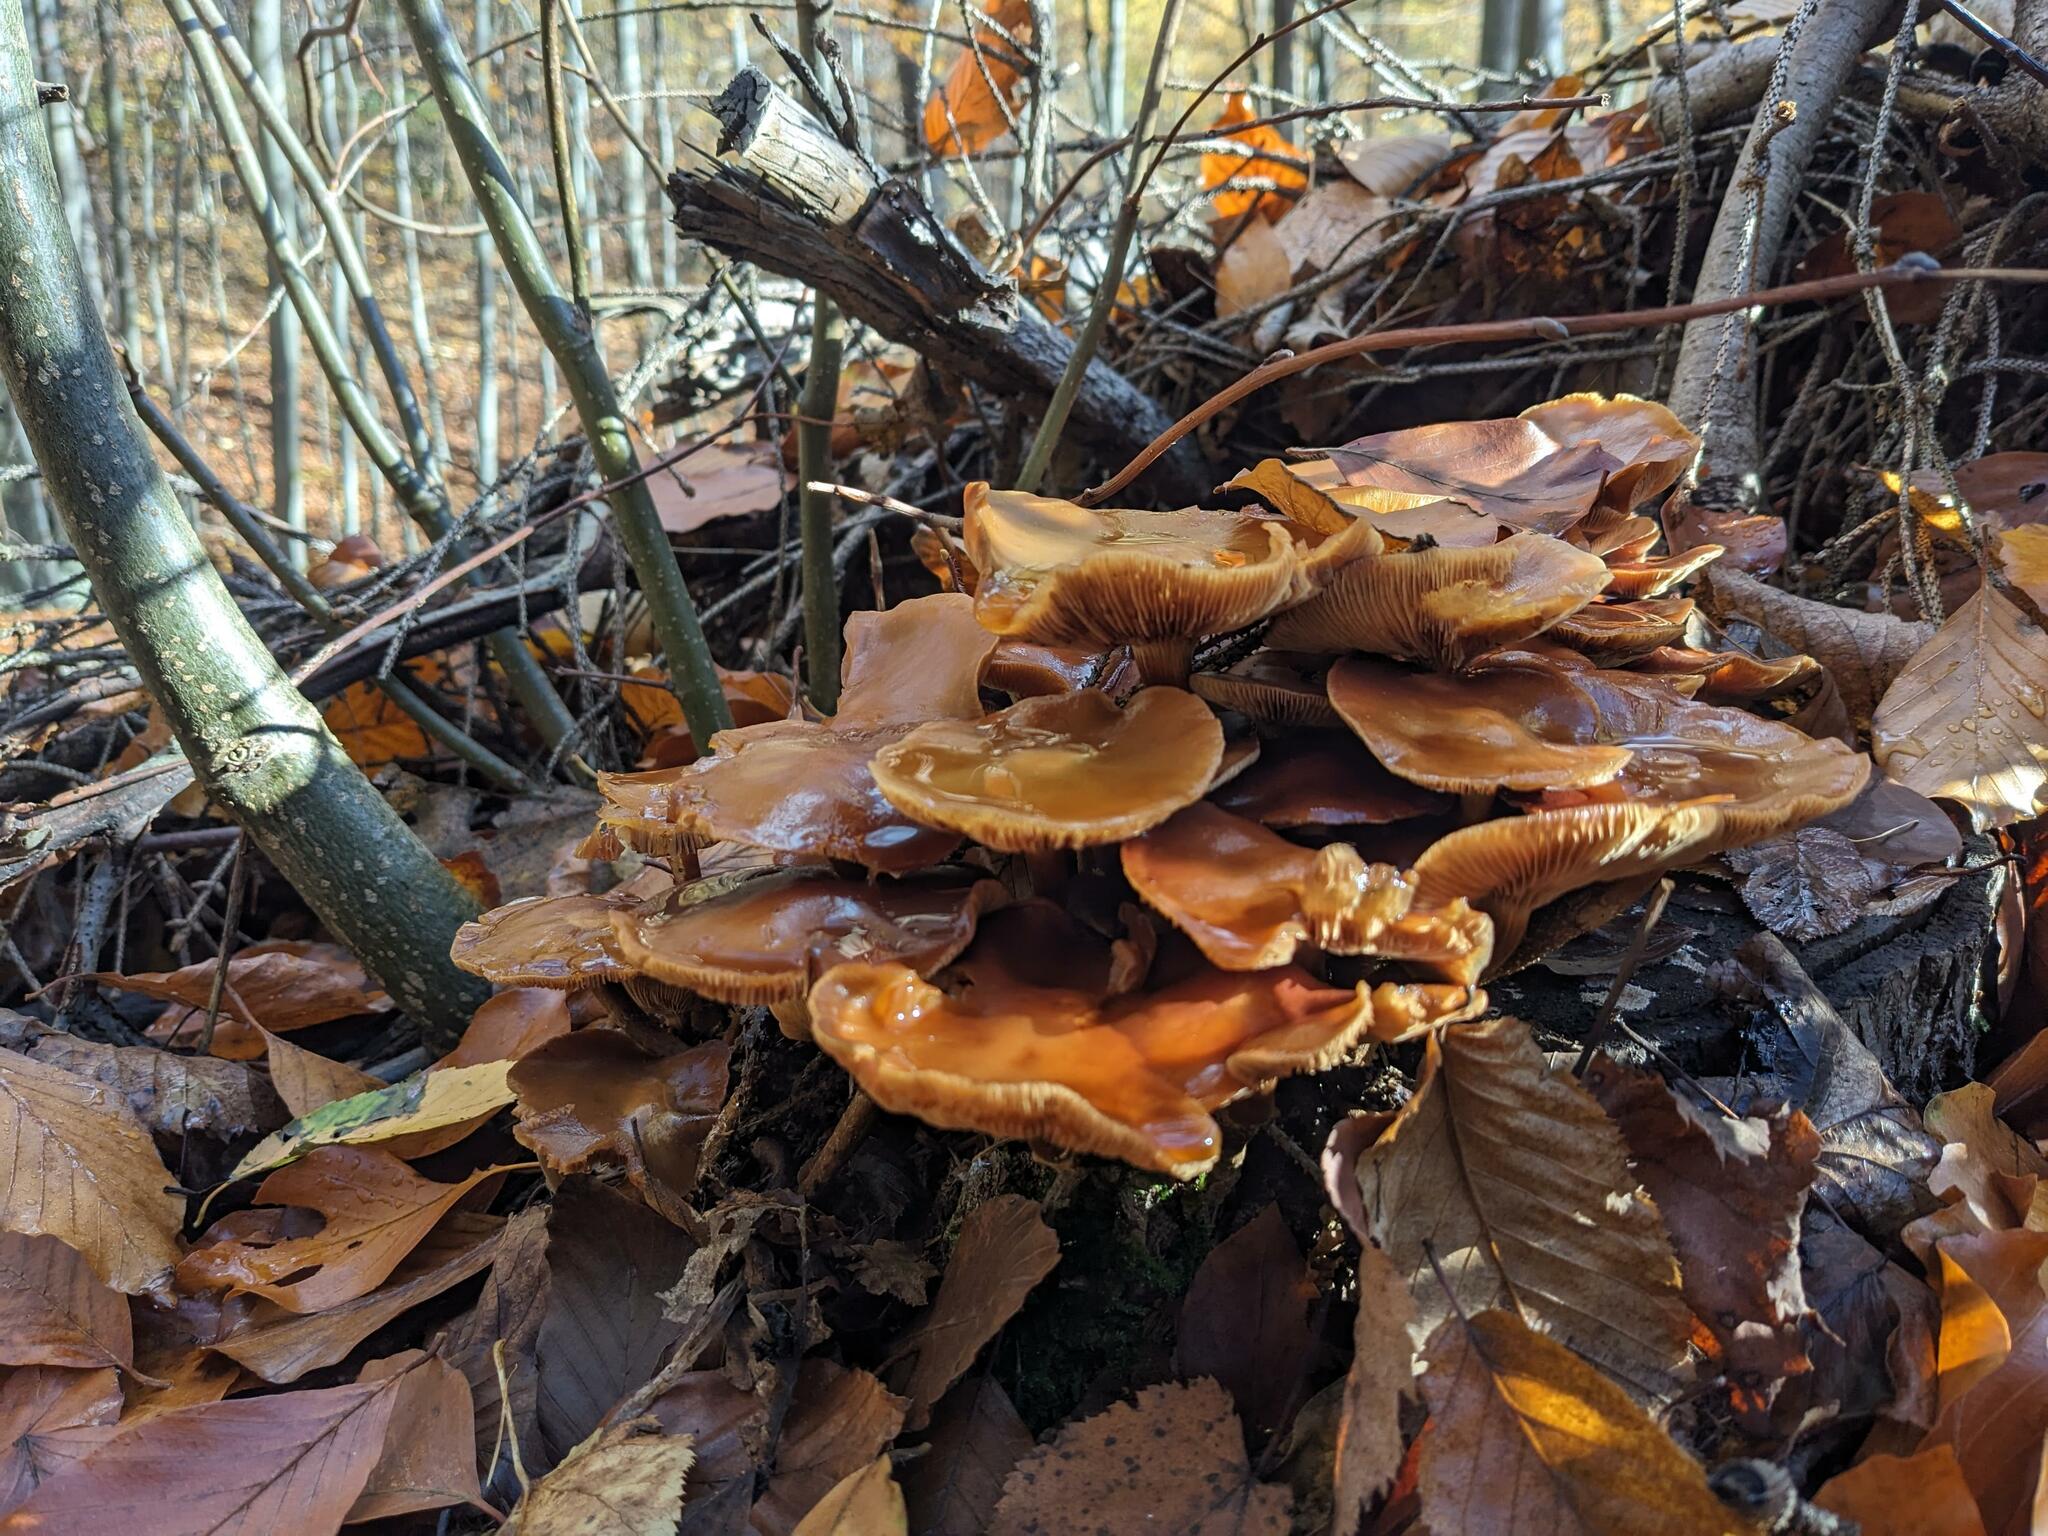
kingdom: Fungi
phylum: Basidiomycota
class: Agaricomycetes
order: Agaricales
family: Strophariaceae
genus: Kuehneromyces
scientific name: Kuehneromyces mutabilis
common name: Sheathed woodtuft
